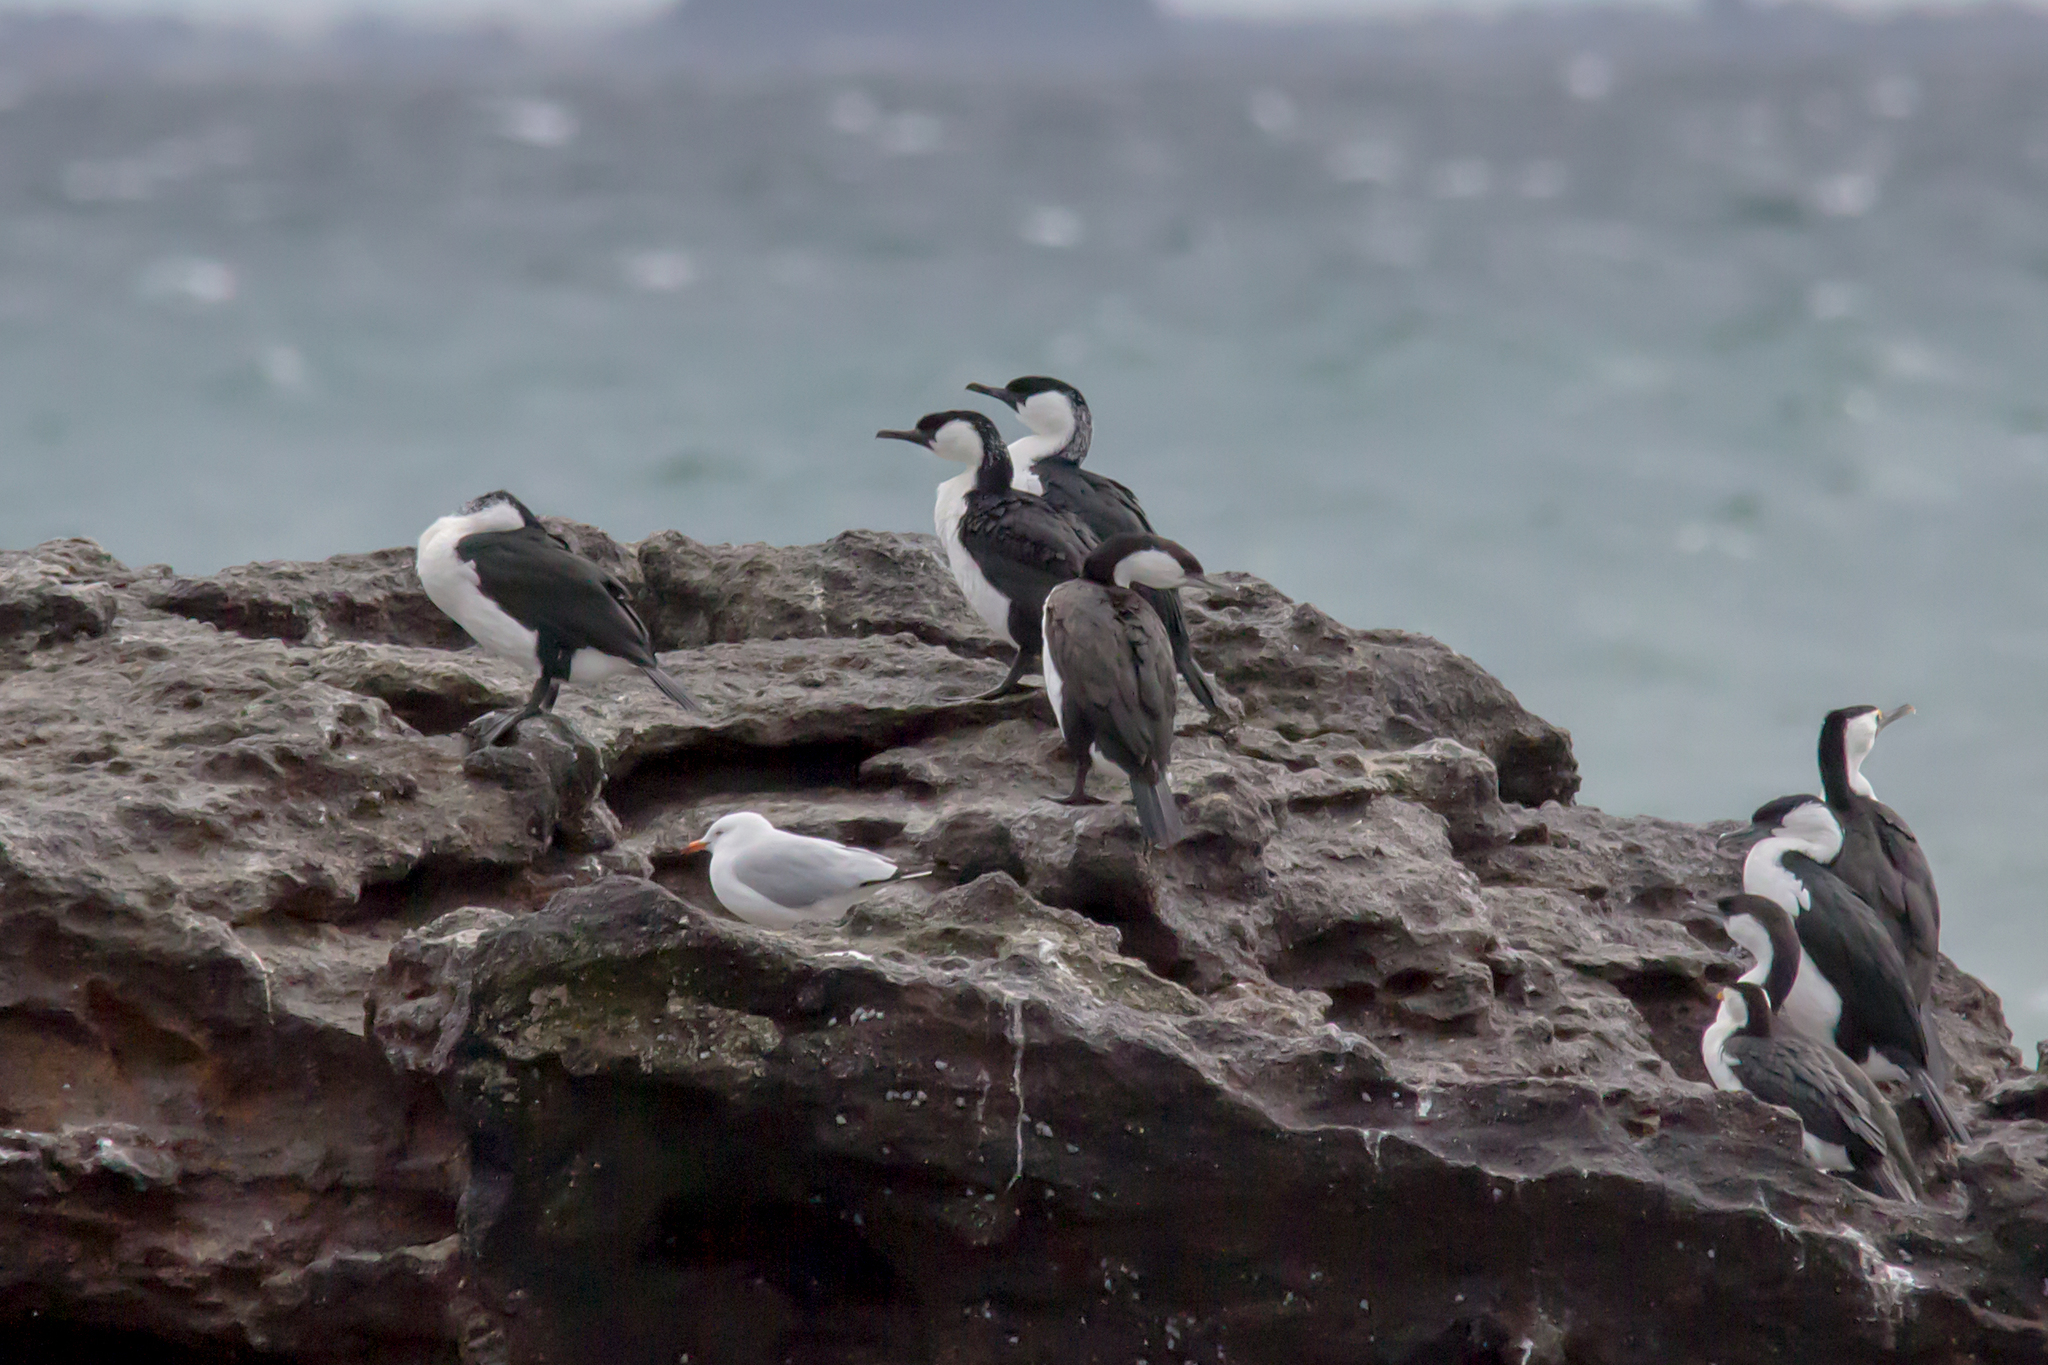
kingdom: Animalia
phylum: Chordata
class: Aves
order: Suliformes
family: Phalacrocoracidae
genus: Phalacrocorax
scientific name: Phalacrocorax fuscescens
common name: Black-faced cormorant
